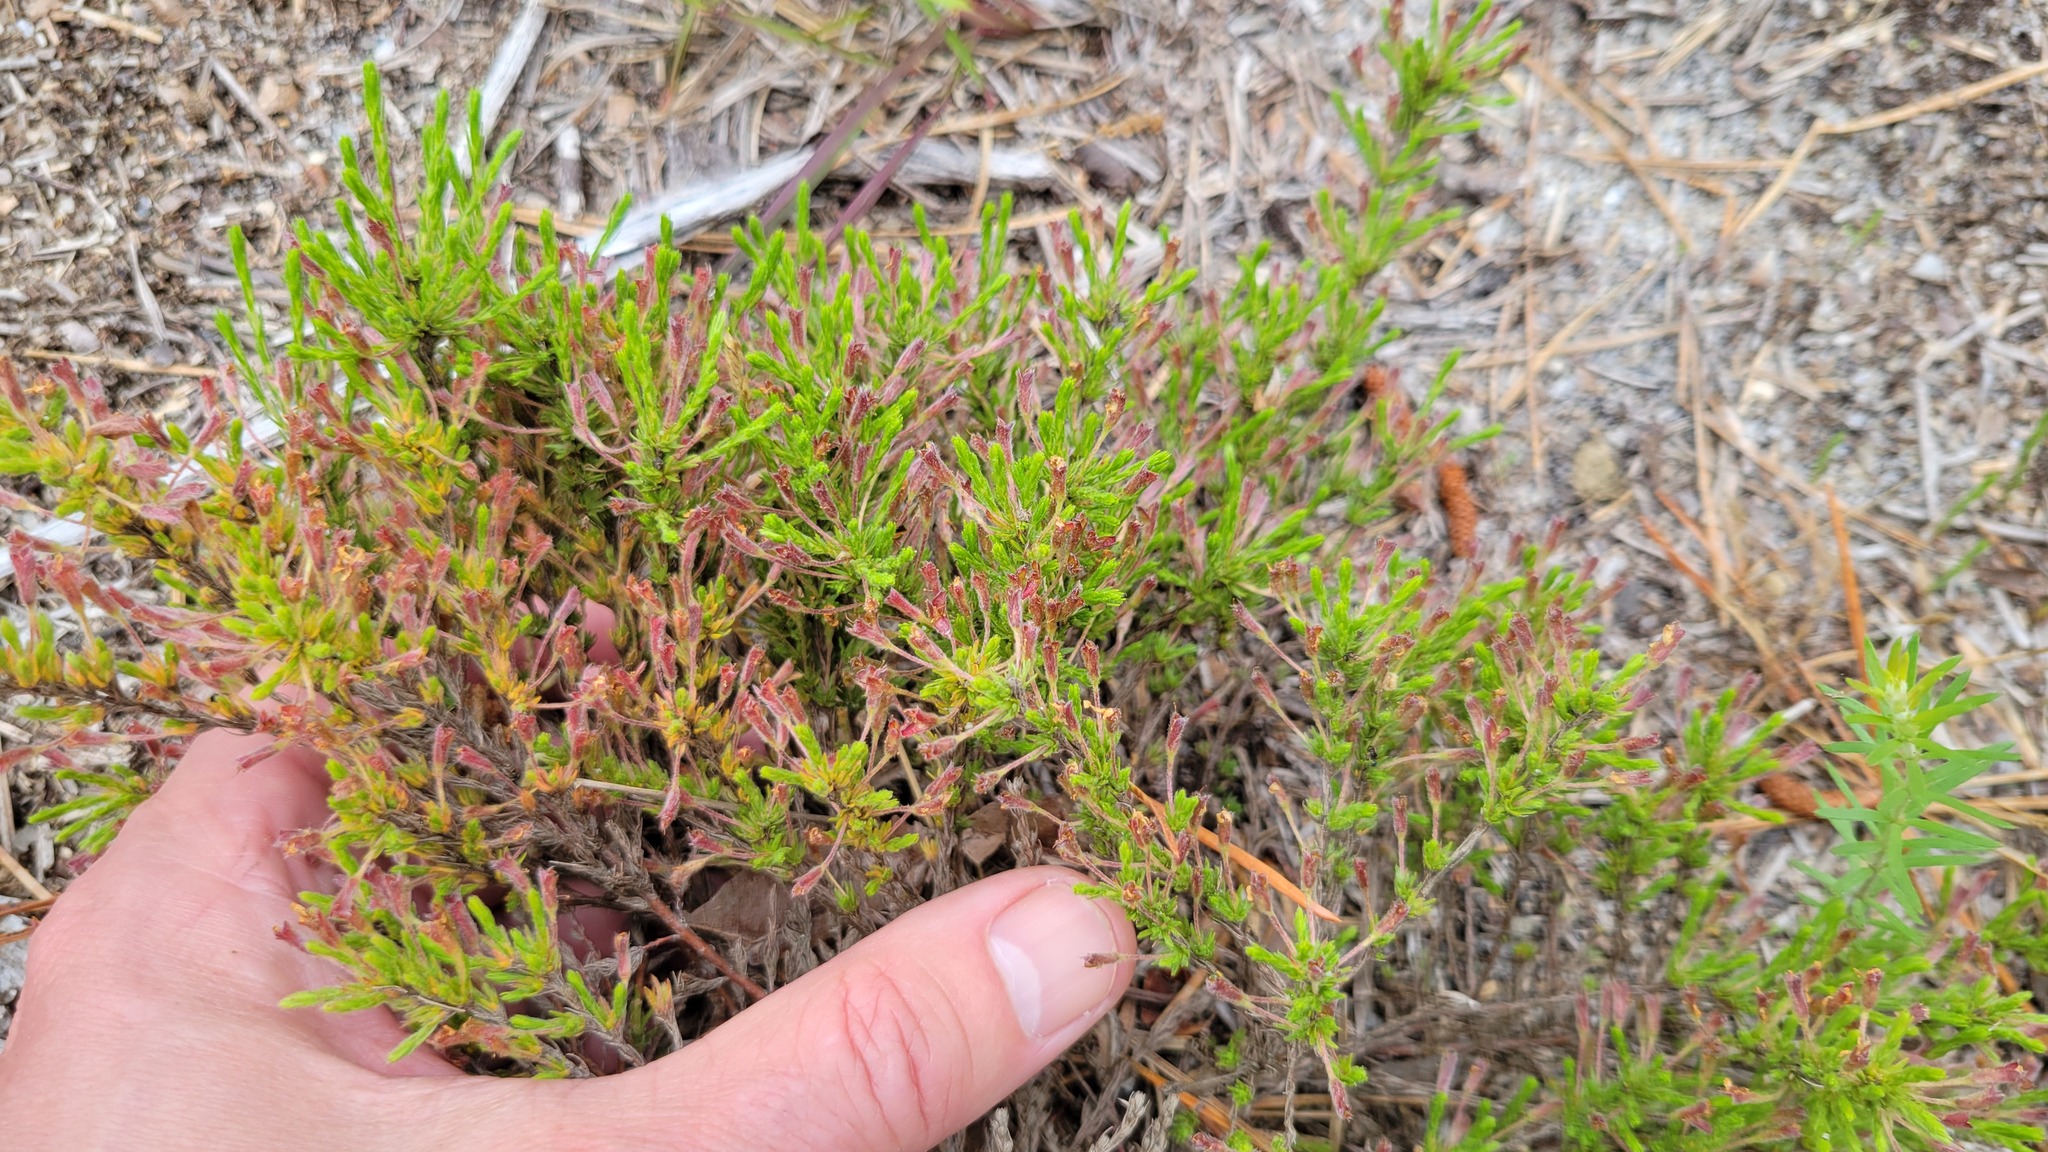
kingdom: Plantae
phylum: Tracheophyta
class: Magnoliopsida
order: Malvales
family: Cistaceae
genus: Hudsonia
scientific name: Hudsonia ericoides
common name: Golden-heather
